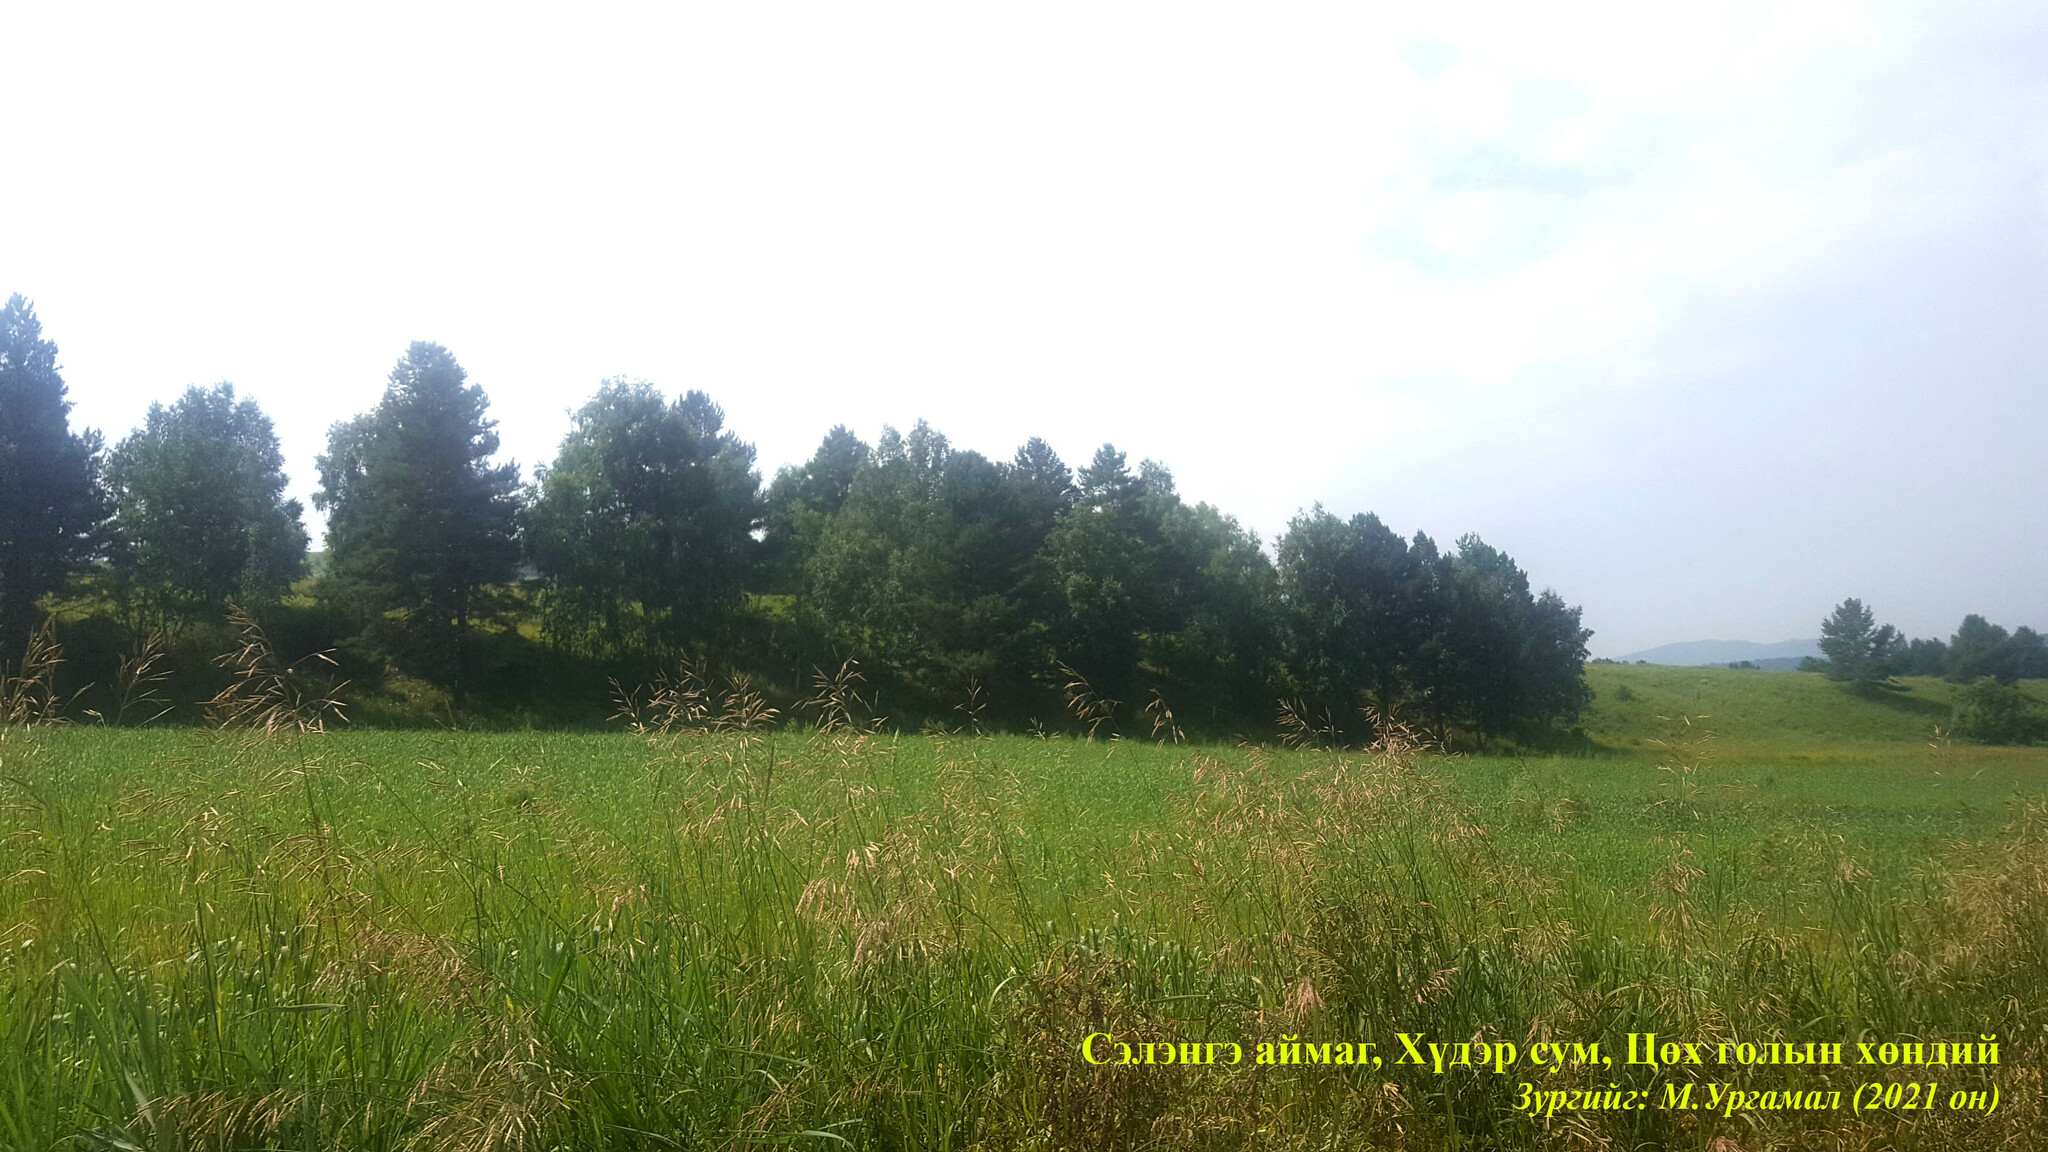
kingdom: Plantae
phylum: Tracheophyta
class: Pinopsida
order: Pinales
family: Pinaceae
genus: Pinus
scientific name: Pinus sylvestris
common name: Scots pine
